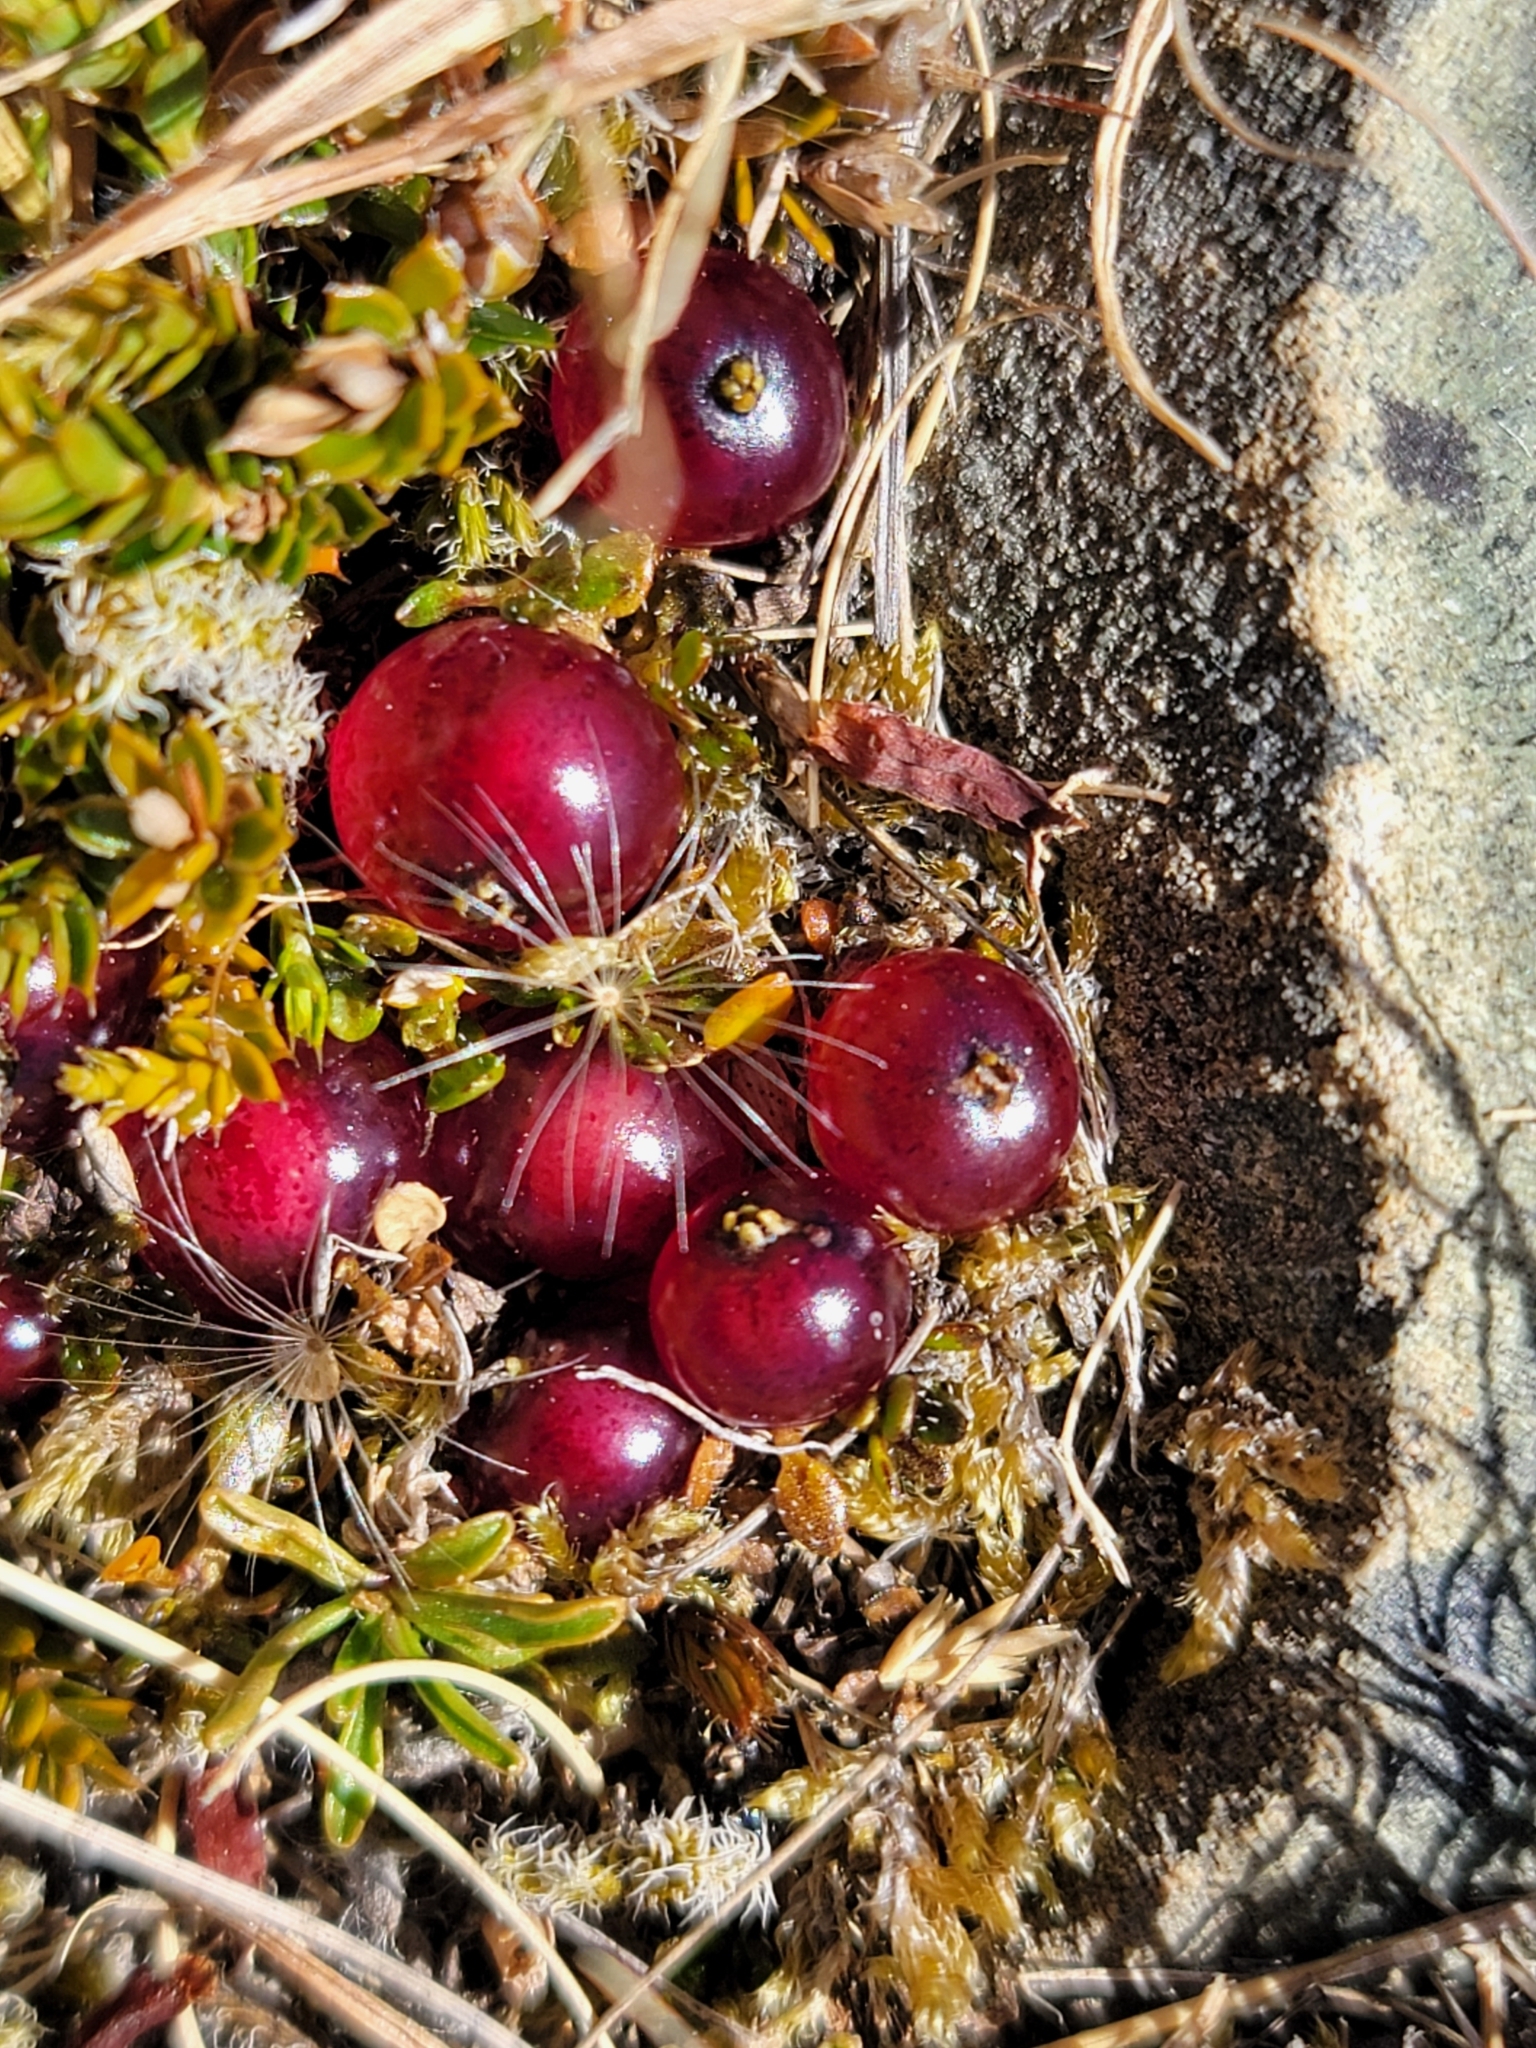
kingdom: Plantae
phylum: Tracheophyta
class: Magnoliopsida
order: Gentianales
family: Rubiaceae
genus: Coprosma
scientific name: Coprosma atropurpurea
